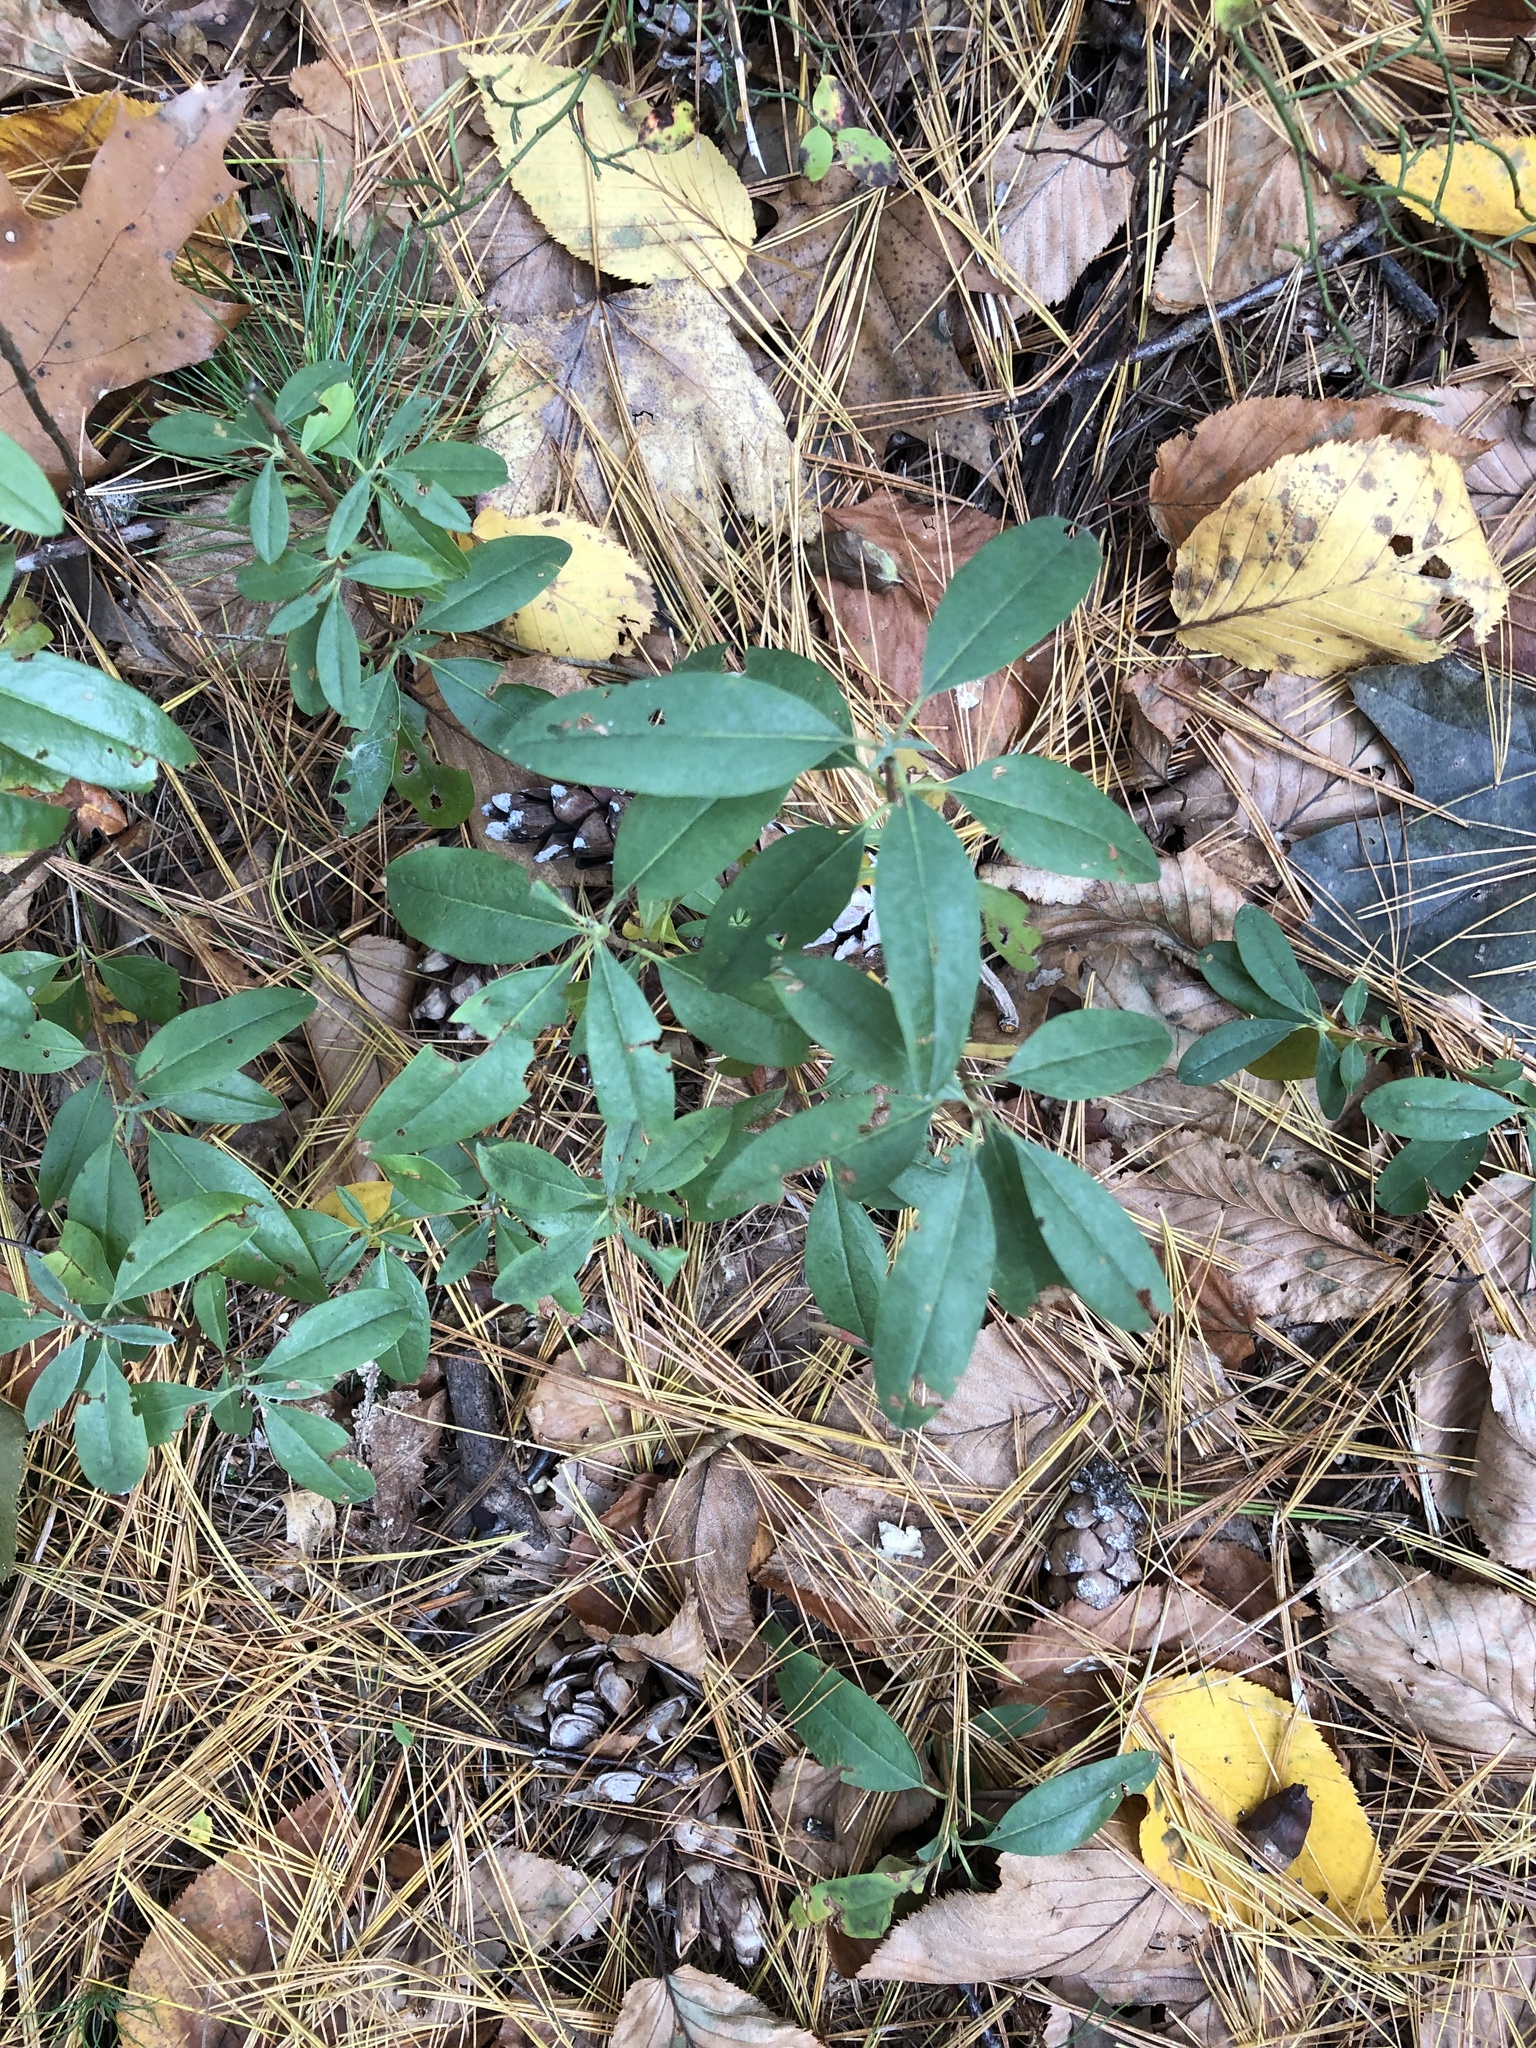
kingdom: Plantae
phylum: Tracheophyta
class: Magnoliopsida
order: Ericales
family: Ericaceae
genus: Kalmia
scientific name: Kalmia angustifolia
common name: Sheep-laurel
